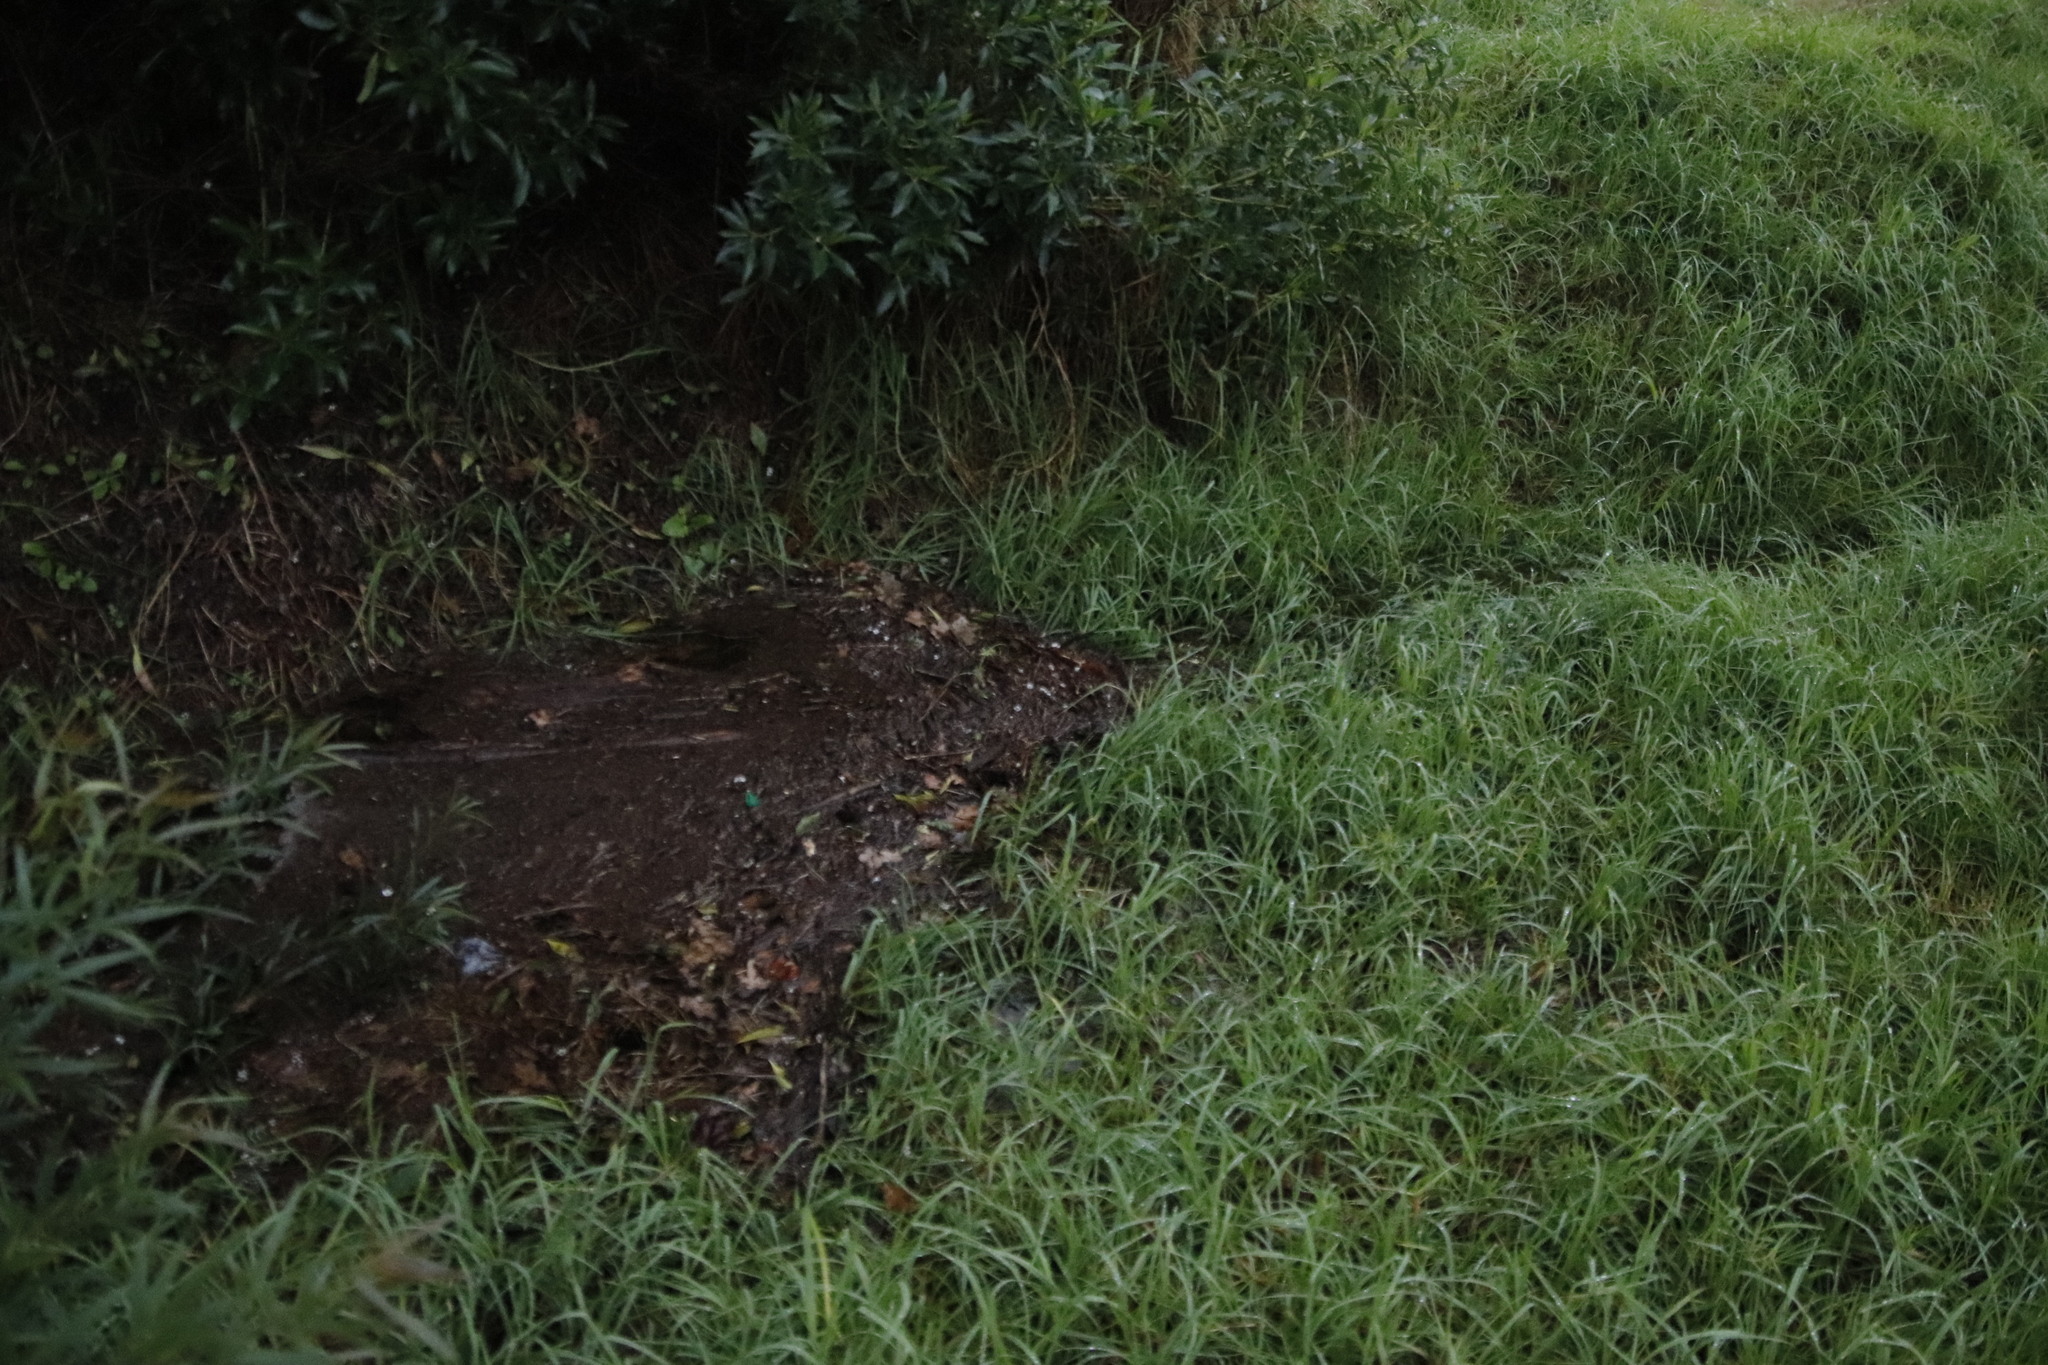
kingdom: Plantae
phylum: Tracheophyta
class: Liliopsida
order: Poales
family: Poaceae
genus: Cenchrus
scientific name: Cenchrus clandestinus
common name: Kikuyugrass
